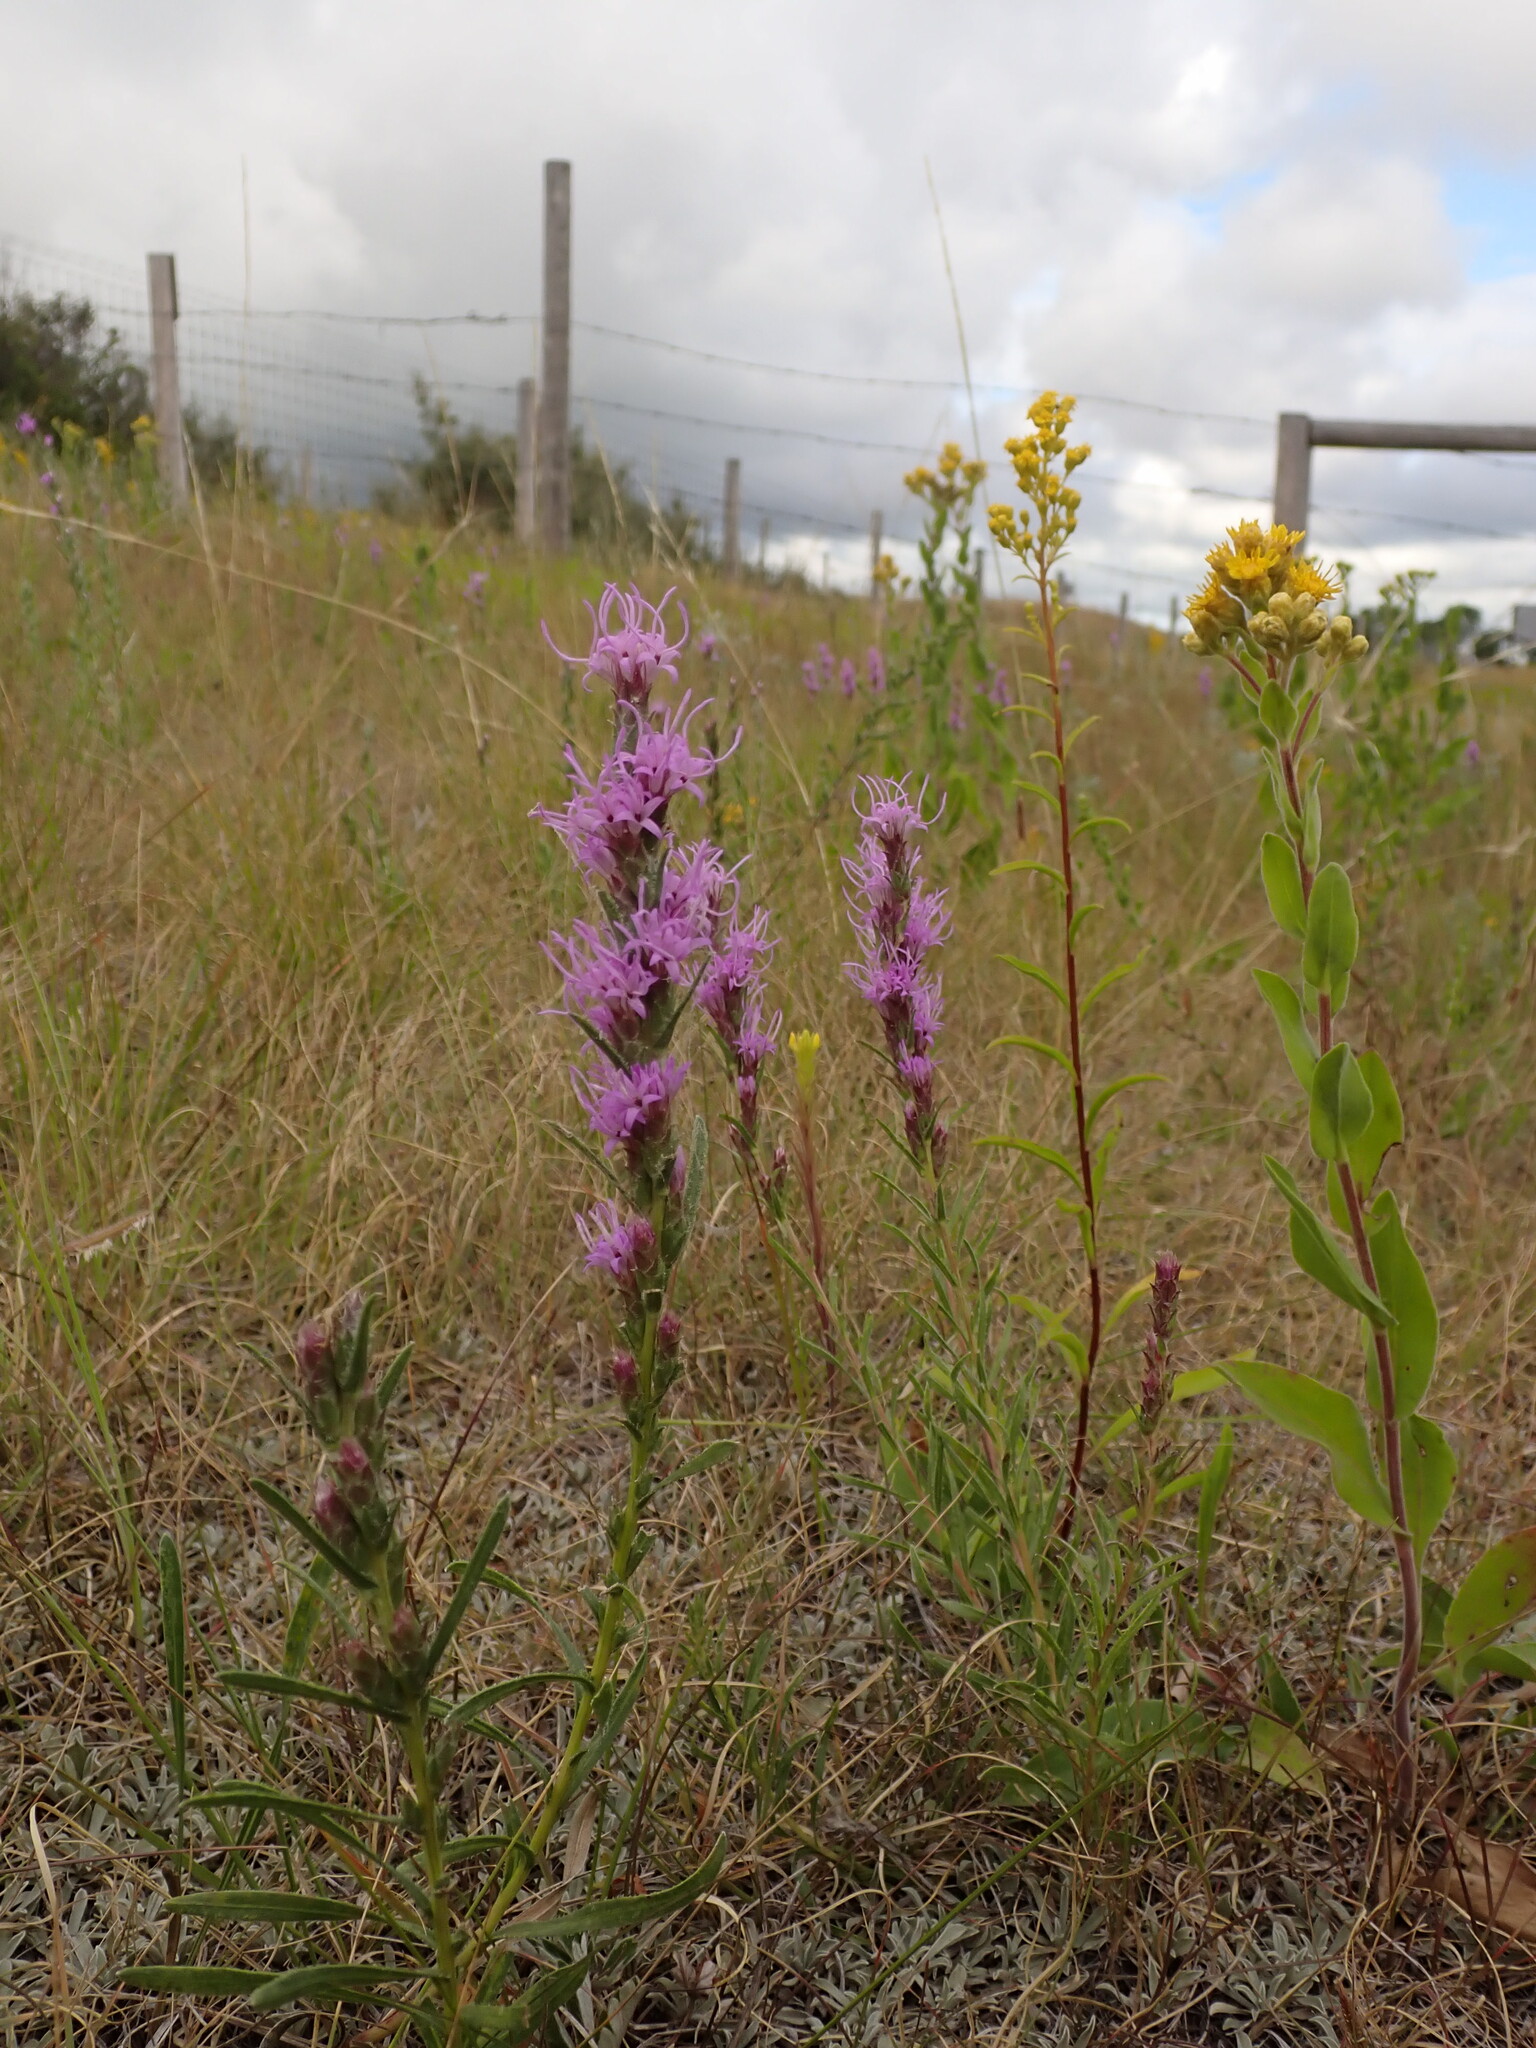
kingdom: Plantae
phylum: Tracheophyta
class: Magnoliopsida
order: Asterales
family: Asteraceae
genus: Liatris
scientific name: Liatris punctata
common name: Dotted gayfeather
